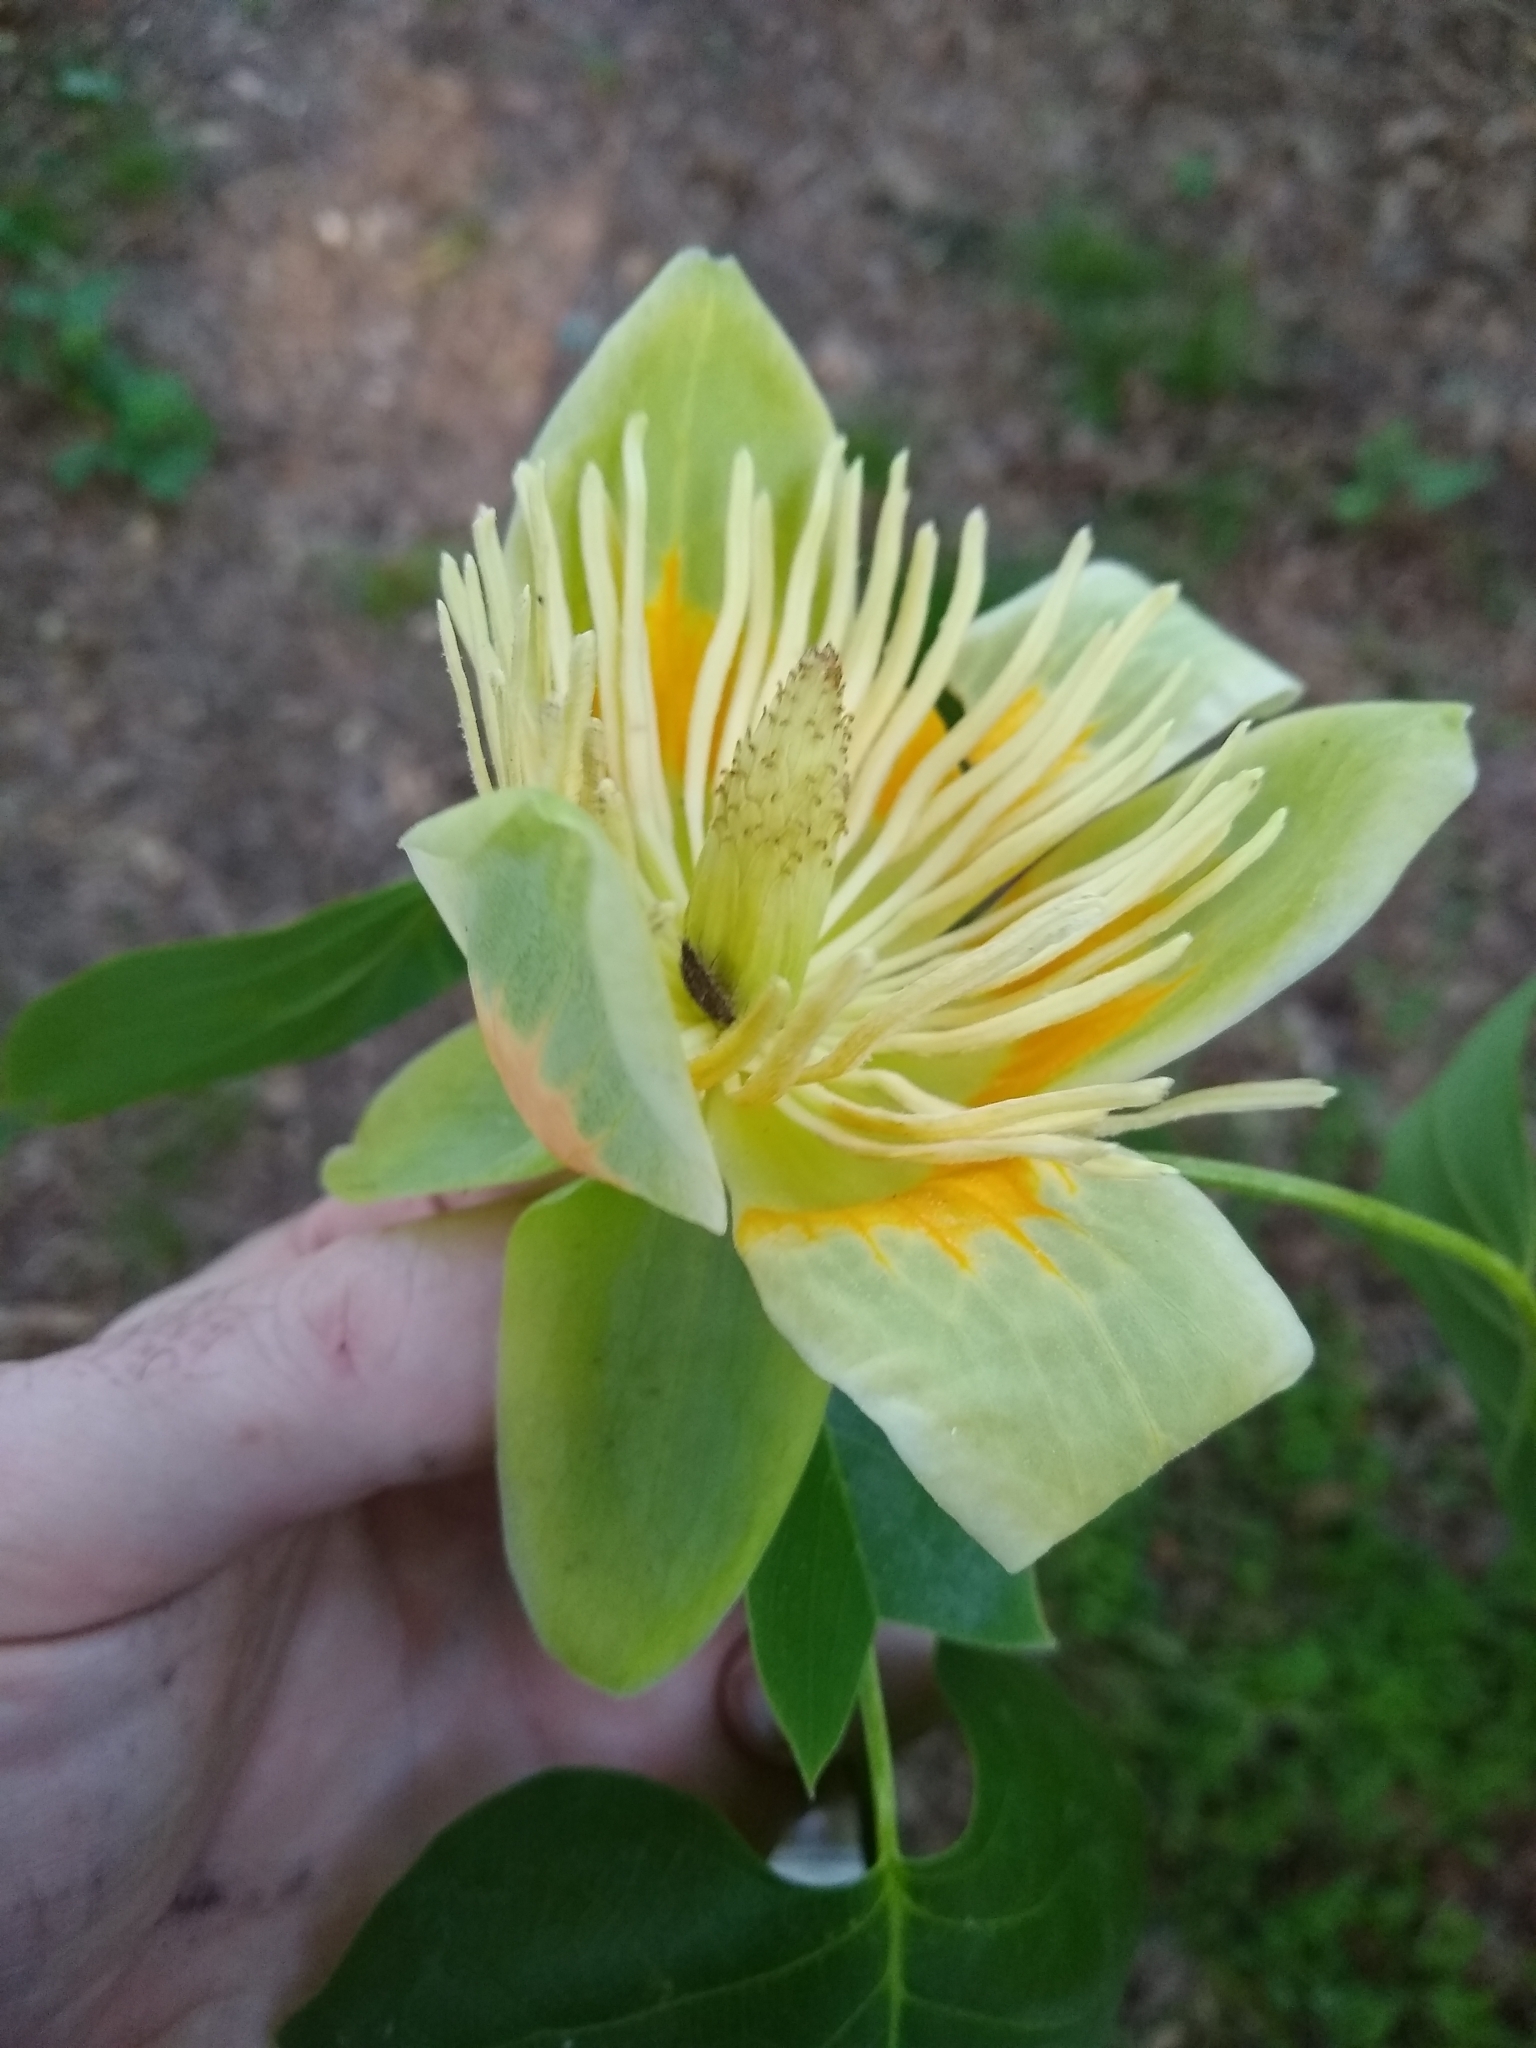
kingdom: Plantae
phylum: Tracheophyta
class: Magnoliopsida
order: Magnoliales
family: Magnoliaceae
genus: Liriodendron
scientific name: Liriodendron tulipifera
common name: Tulip tree
